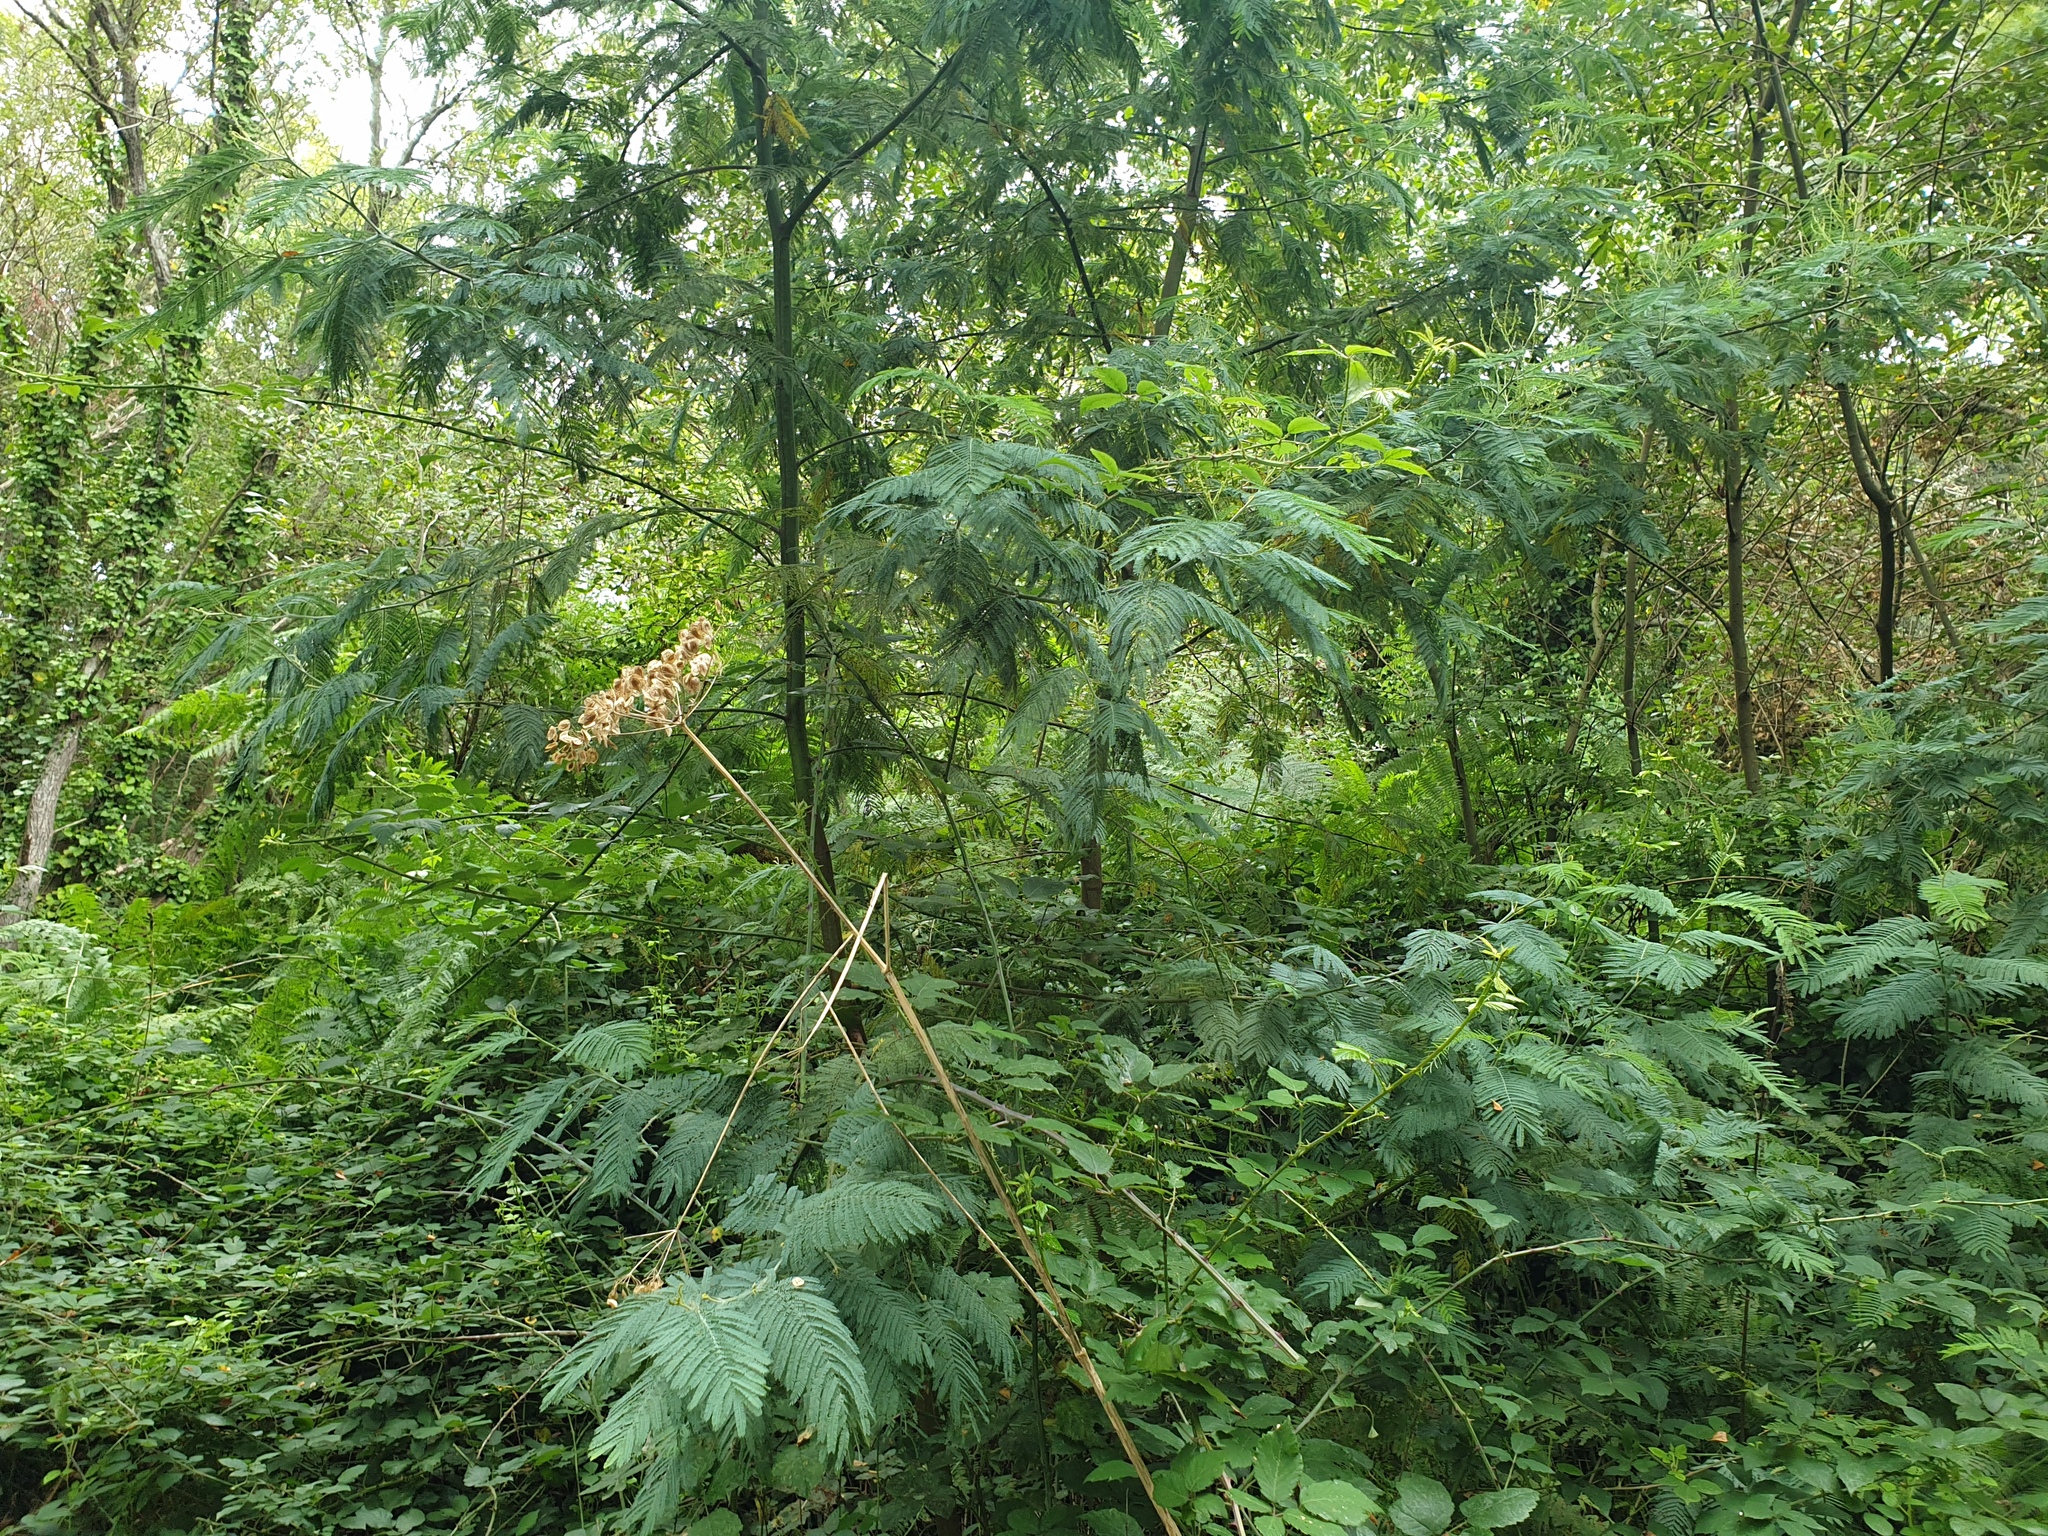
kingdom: Plantae
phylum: Tracheophyta
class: Magnoliopsida
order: Fabales
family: Fabaceae
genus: Acacia
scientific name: Acacia dealbata
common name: Silver wattle
